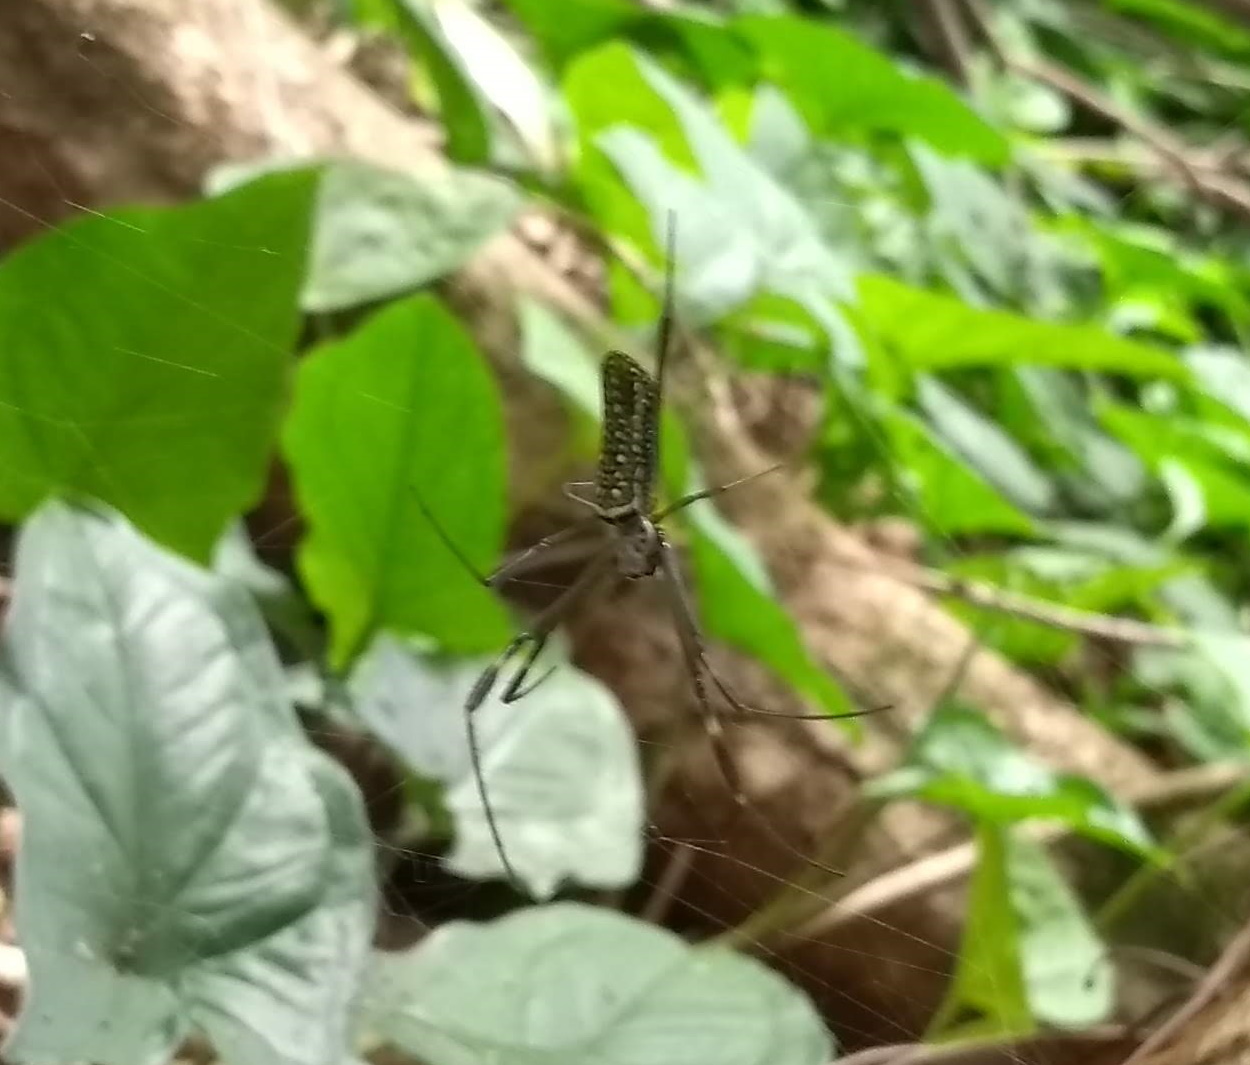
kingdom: Animalia
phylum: Arthropoda
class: Arachnida
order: Araneae
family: Araneidae
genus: Trichonephila
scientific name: Trichonephila clavipes
